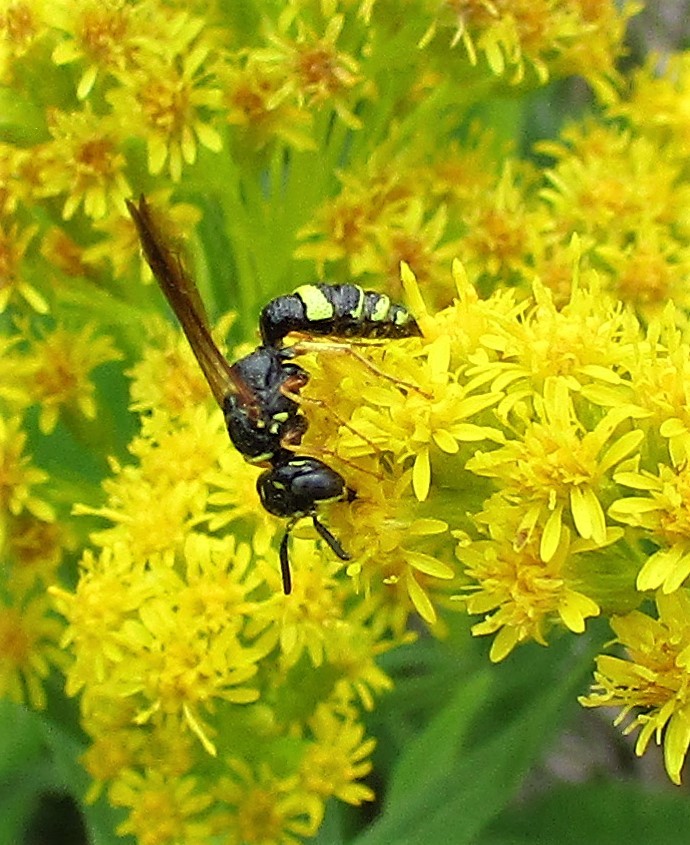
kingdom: Animalia
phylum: Arthropoda
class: Insecta
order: Hymenoptera
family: Crabronidae
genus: Philanthus
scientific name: Philanthus gibbosus
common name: Humped beewolf
